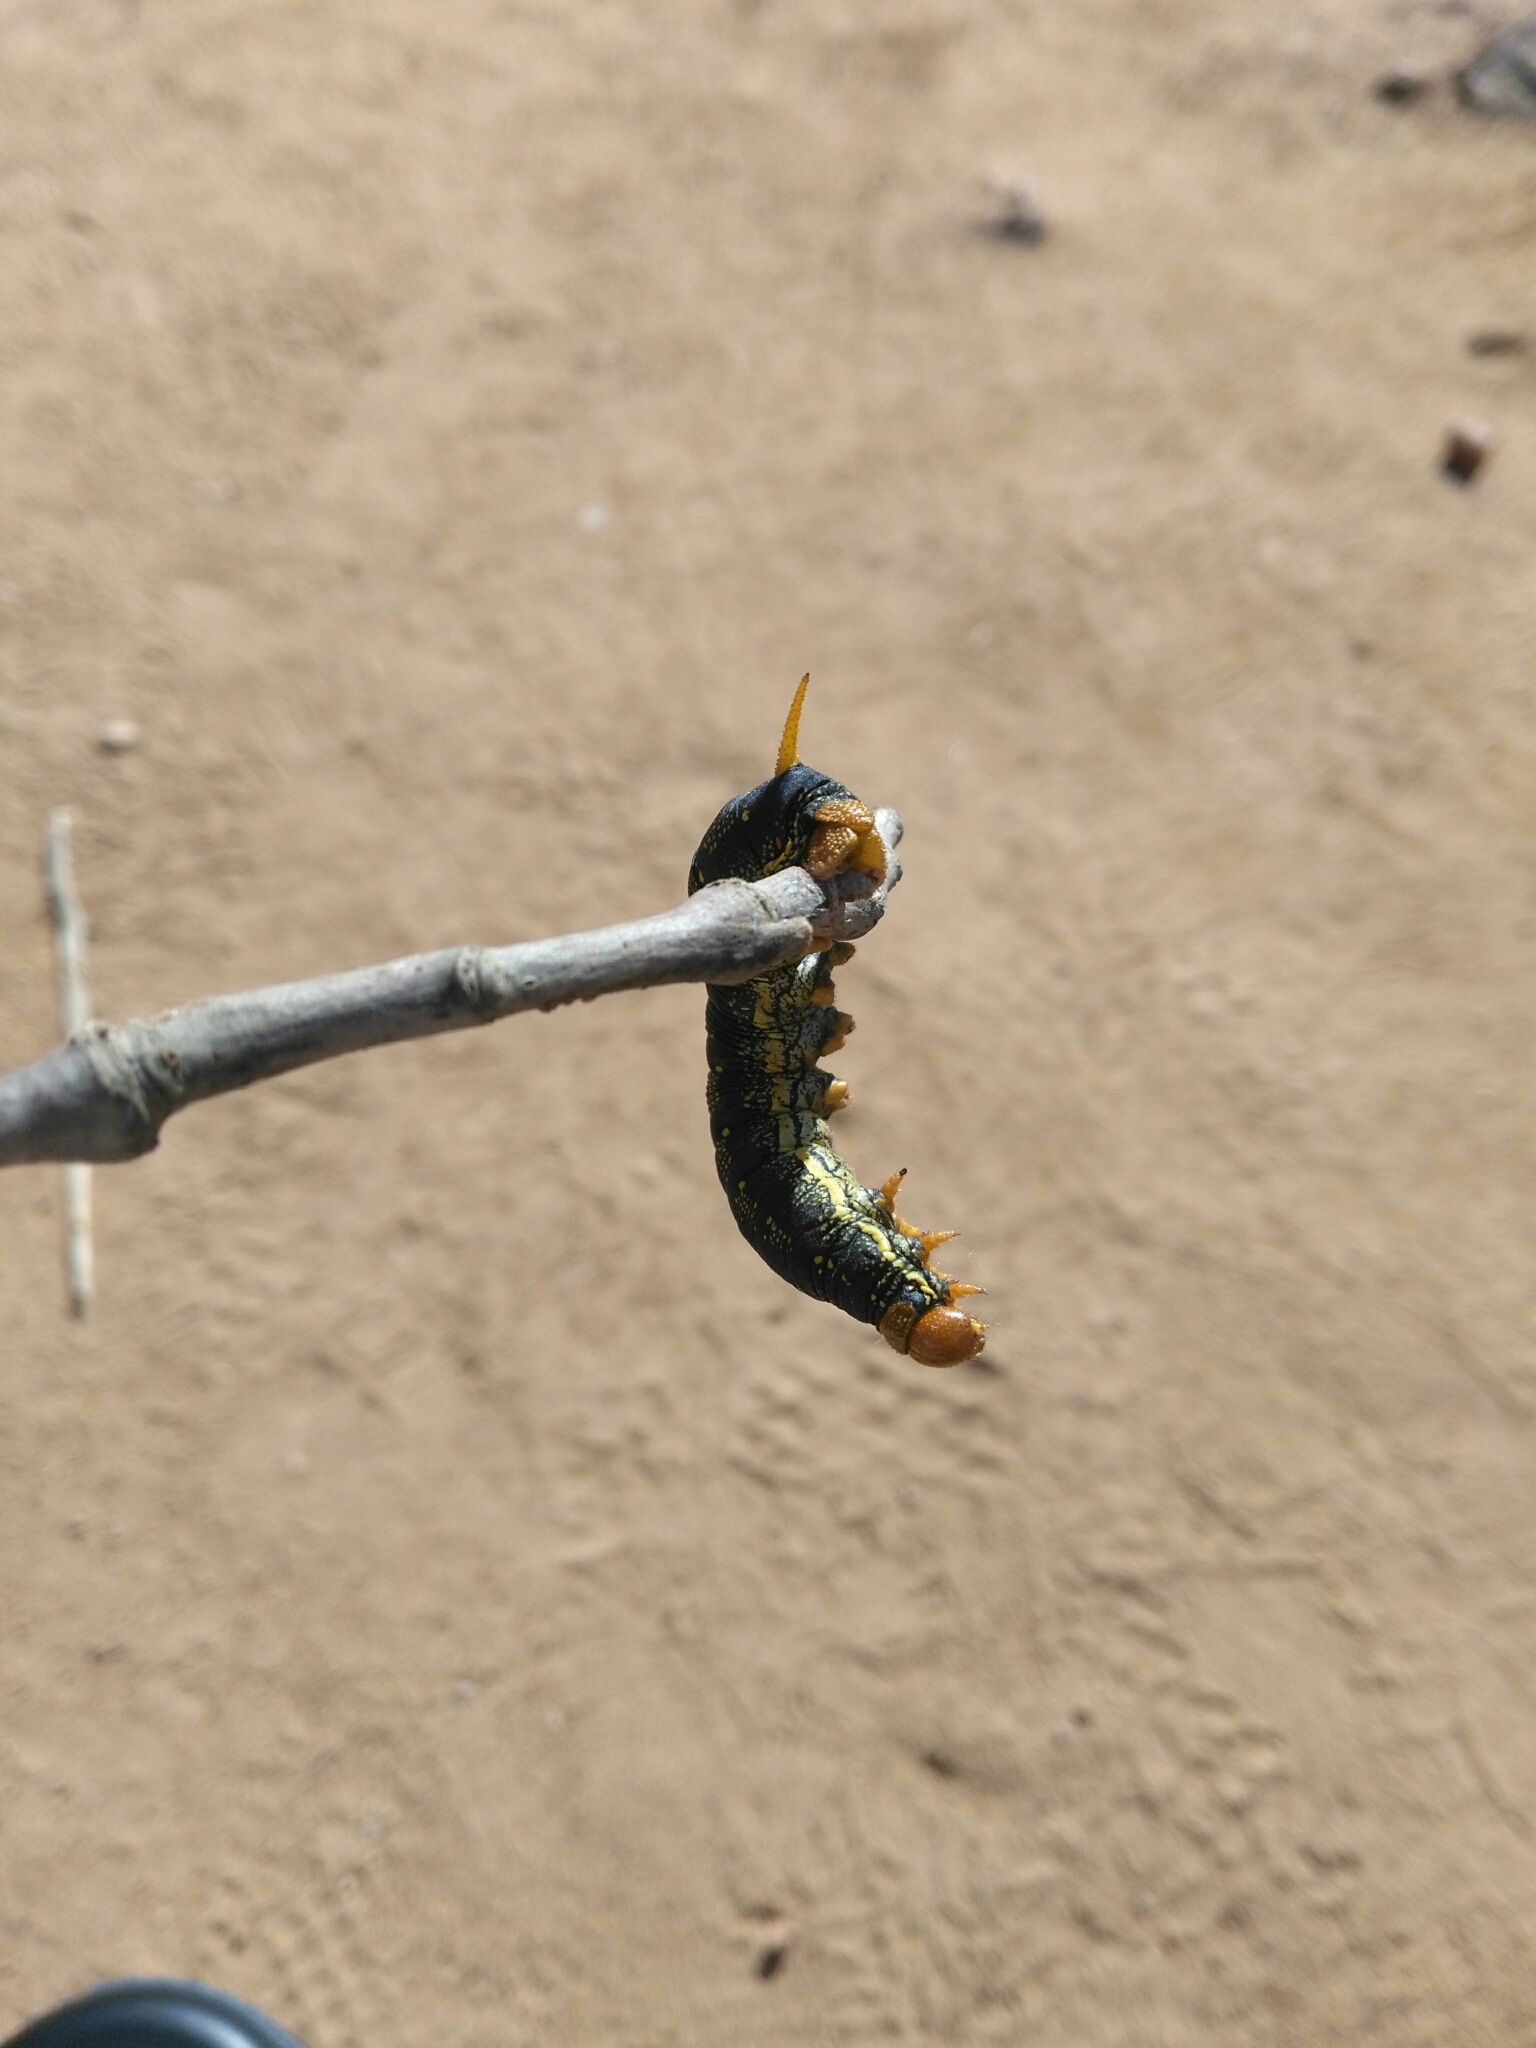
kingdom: Animalia
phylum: Arthropoda
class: Insecta
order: Lepidoptera
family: Sphingidae
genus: Hyles
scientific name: Hyles lineata
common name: White-lined sphinx
